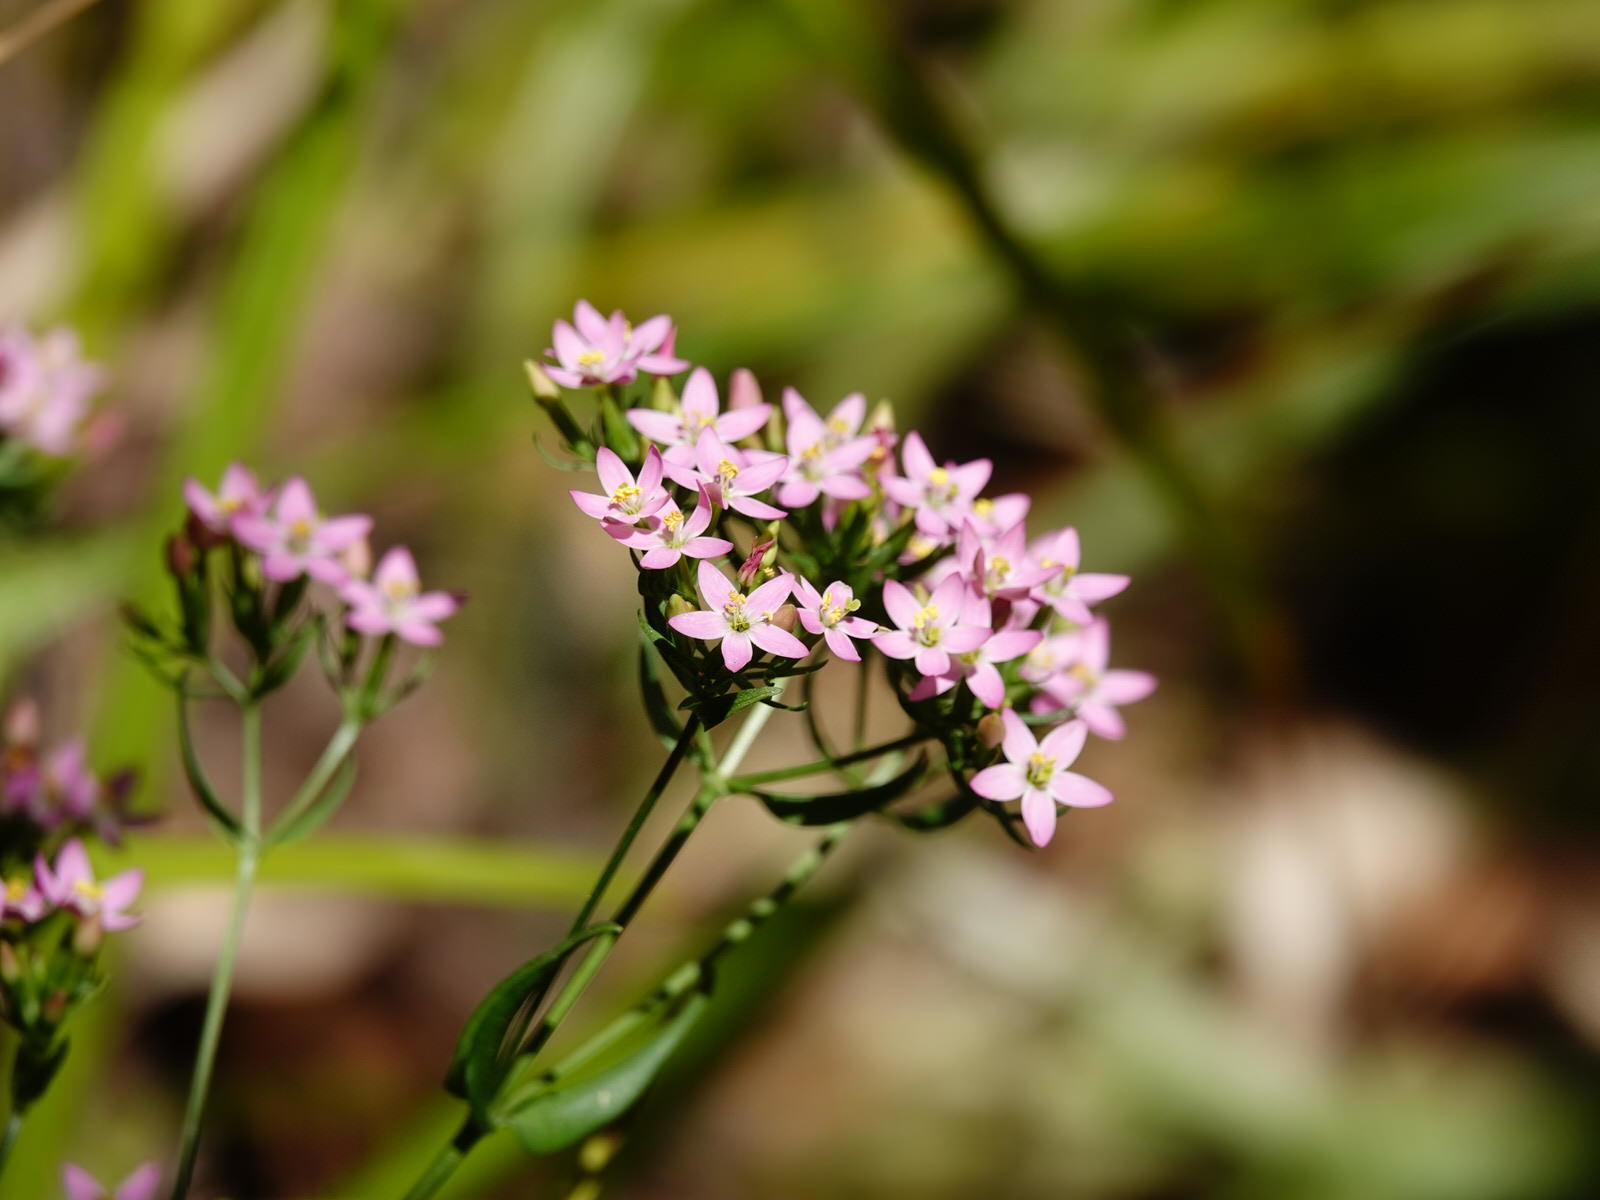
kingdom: Plantae
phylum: Tracheophyta
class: Magnoliopsida
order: Gentianales
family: Gentianaceae
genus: Centaurium
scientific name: Centaurium erythraea
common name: Common centaury
